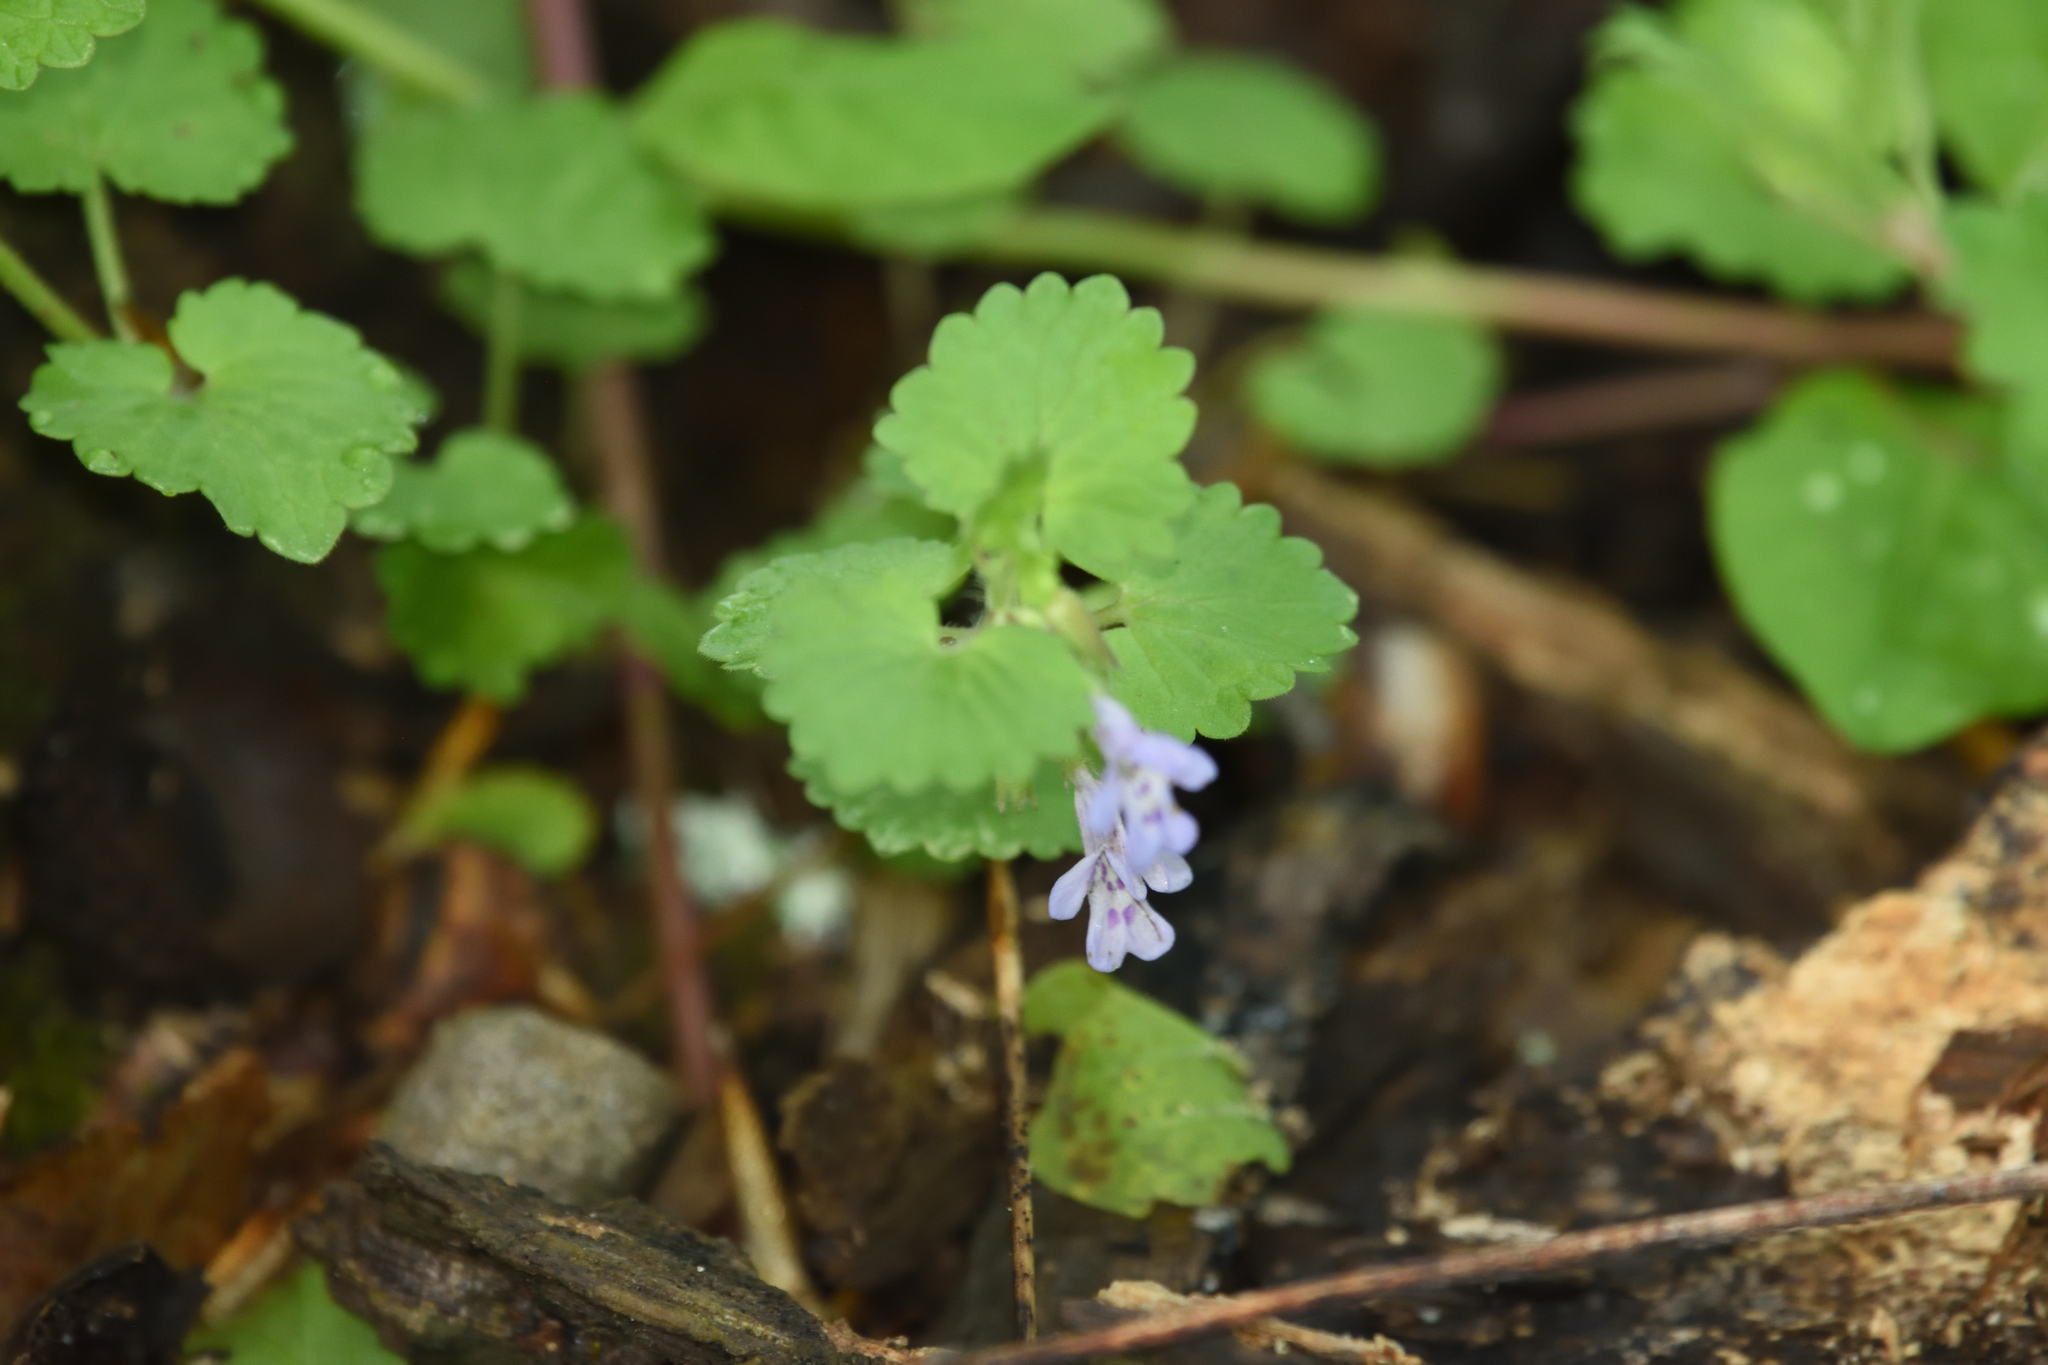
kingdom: Plantae
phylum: Tracheophyta
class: Magnoliopsida
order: Lamiales
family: Lamiaceae
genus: Glechoma
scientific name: Glechoma hederacea
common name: Ground ivy
